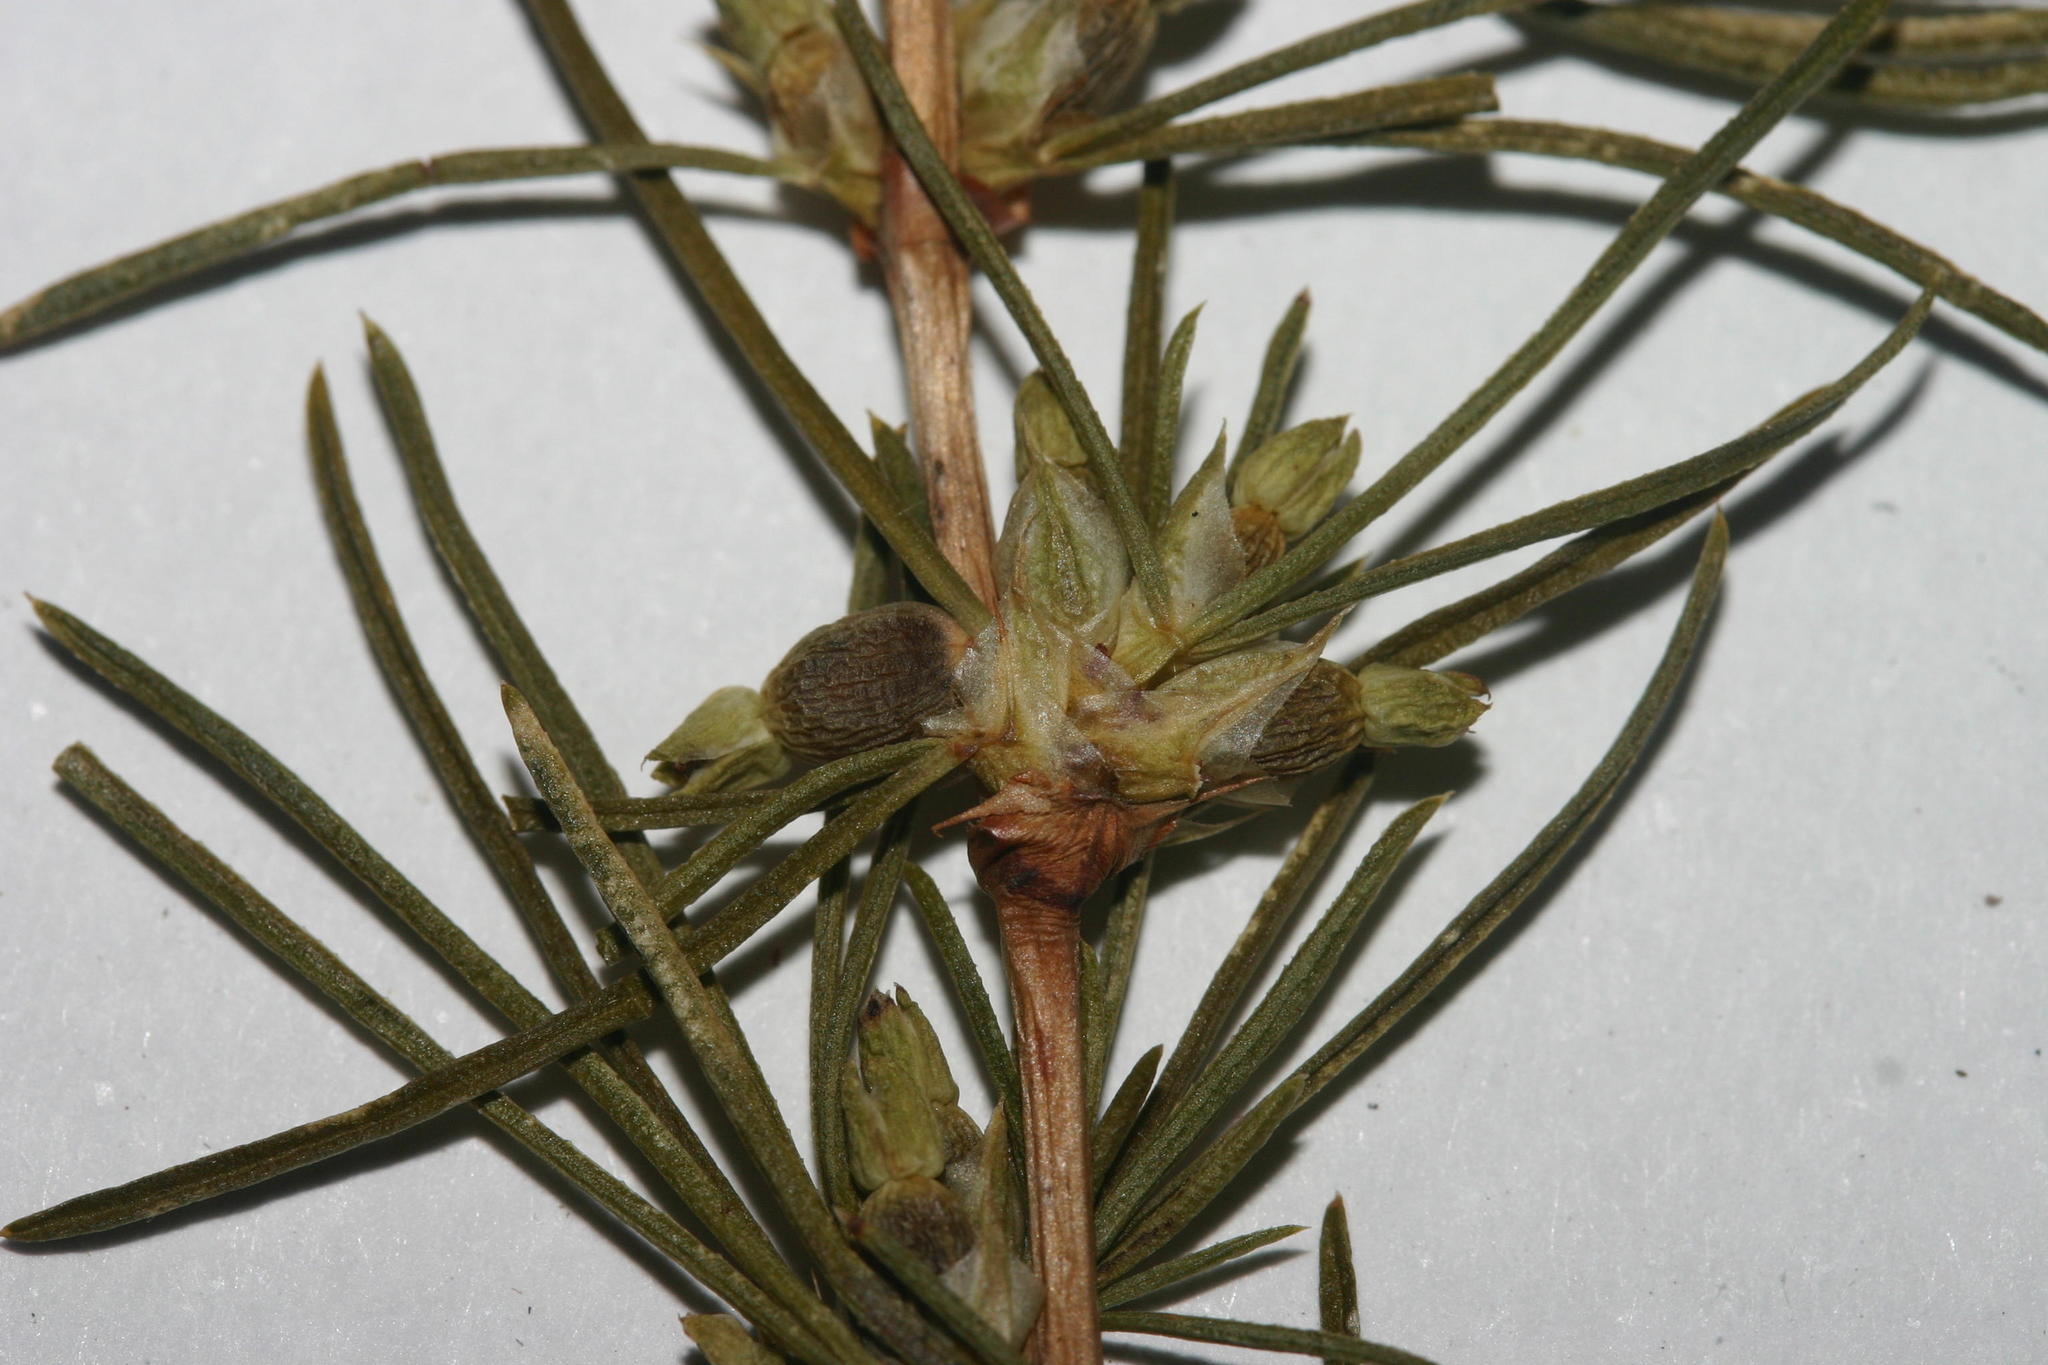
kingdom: Plantae
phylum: Tracheophyta
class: Magnoliopsida
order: Rosales
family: Rosaceae
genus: Cliffortia
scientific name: Cliffortia burchellii
